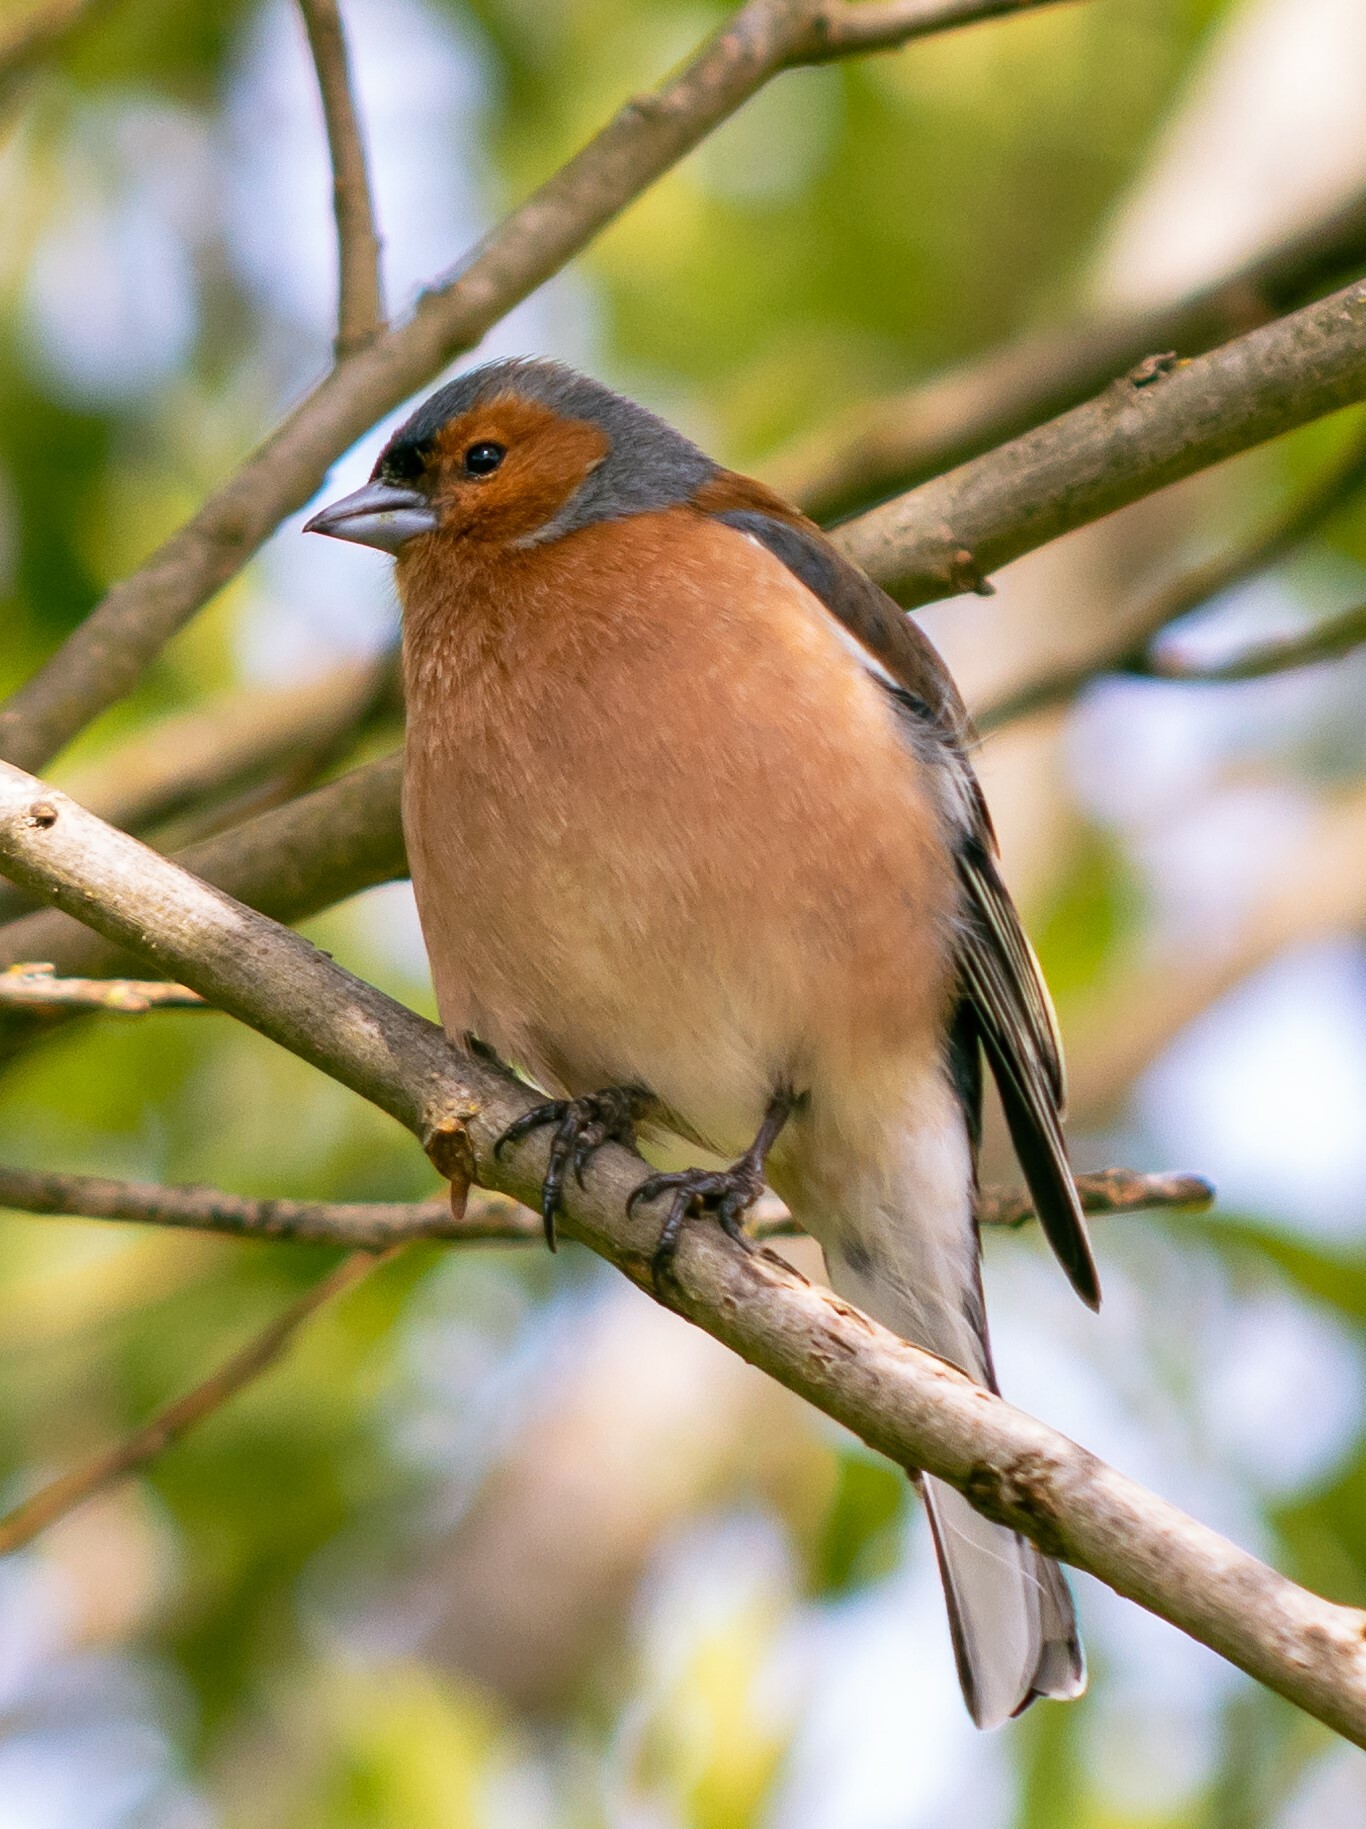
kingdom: Animalia
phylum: Chordata
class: Aves
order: Passeriformes
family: Fringillidae
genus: Fringilla
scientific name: Fringilla coelebs
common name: Common chaffinch
